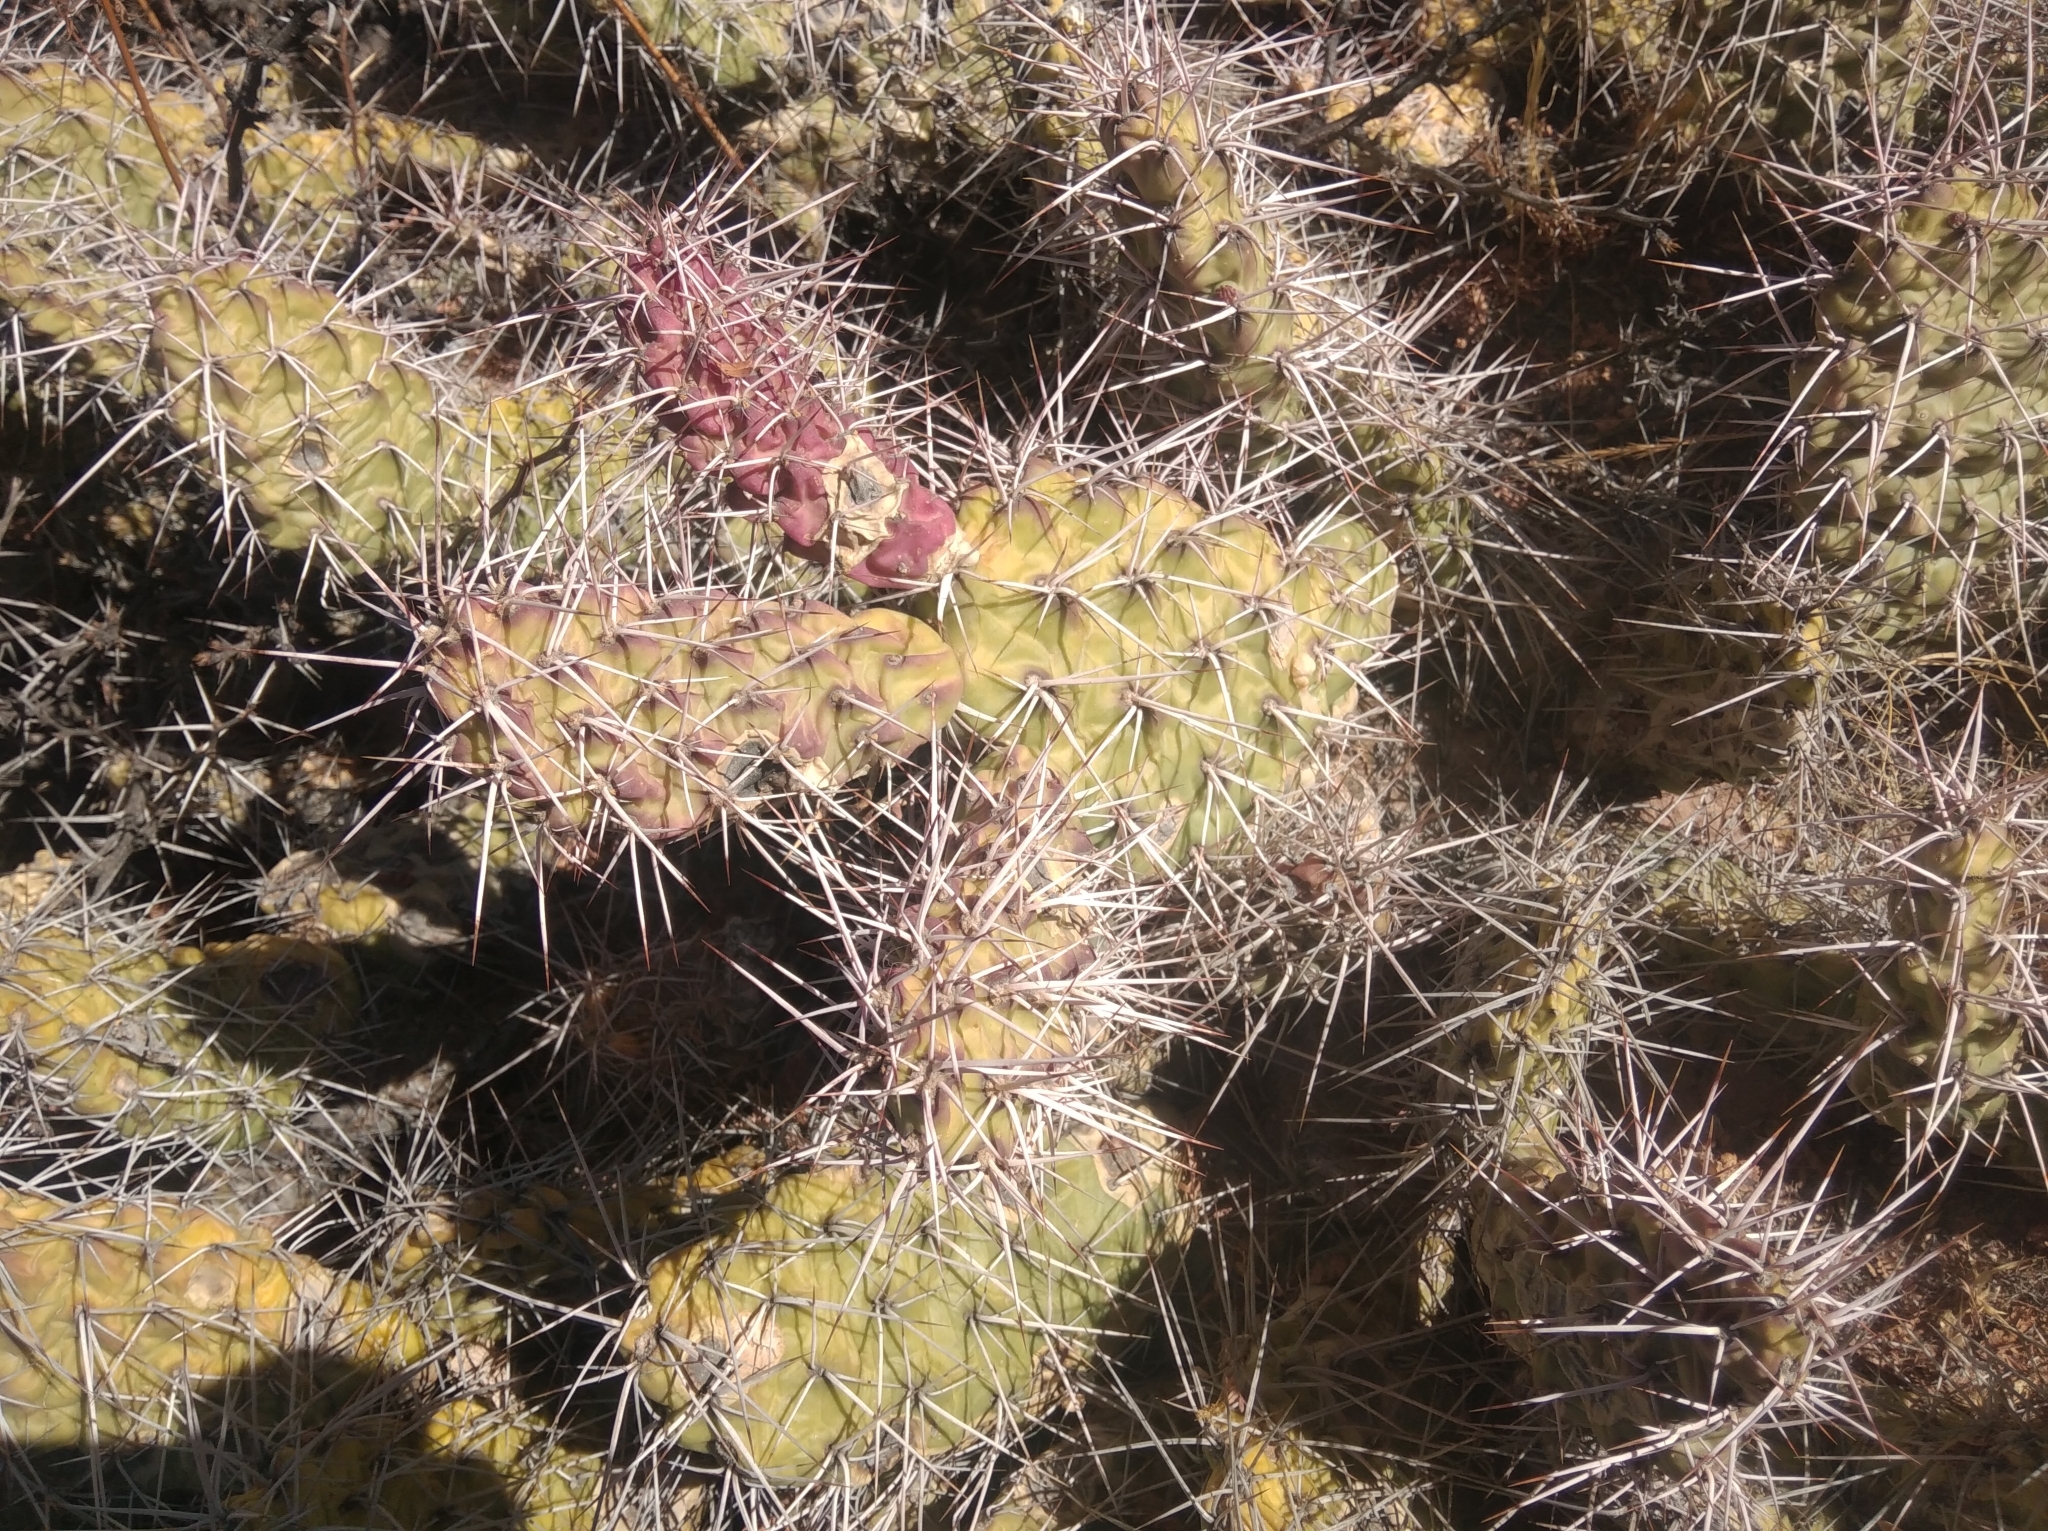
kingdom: Plantae
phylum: Tracheophyta
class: Magnoliopsida
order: Caryophyllales
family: Cactaceae
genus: Opuntia
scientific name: Opuntia sulphurea
